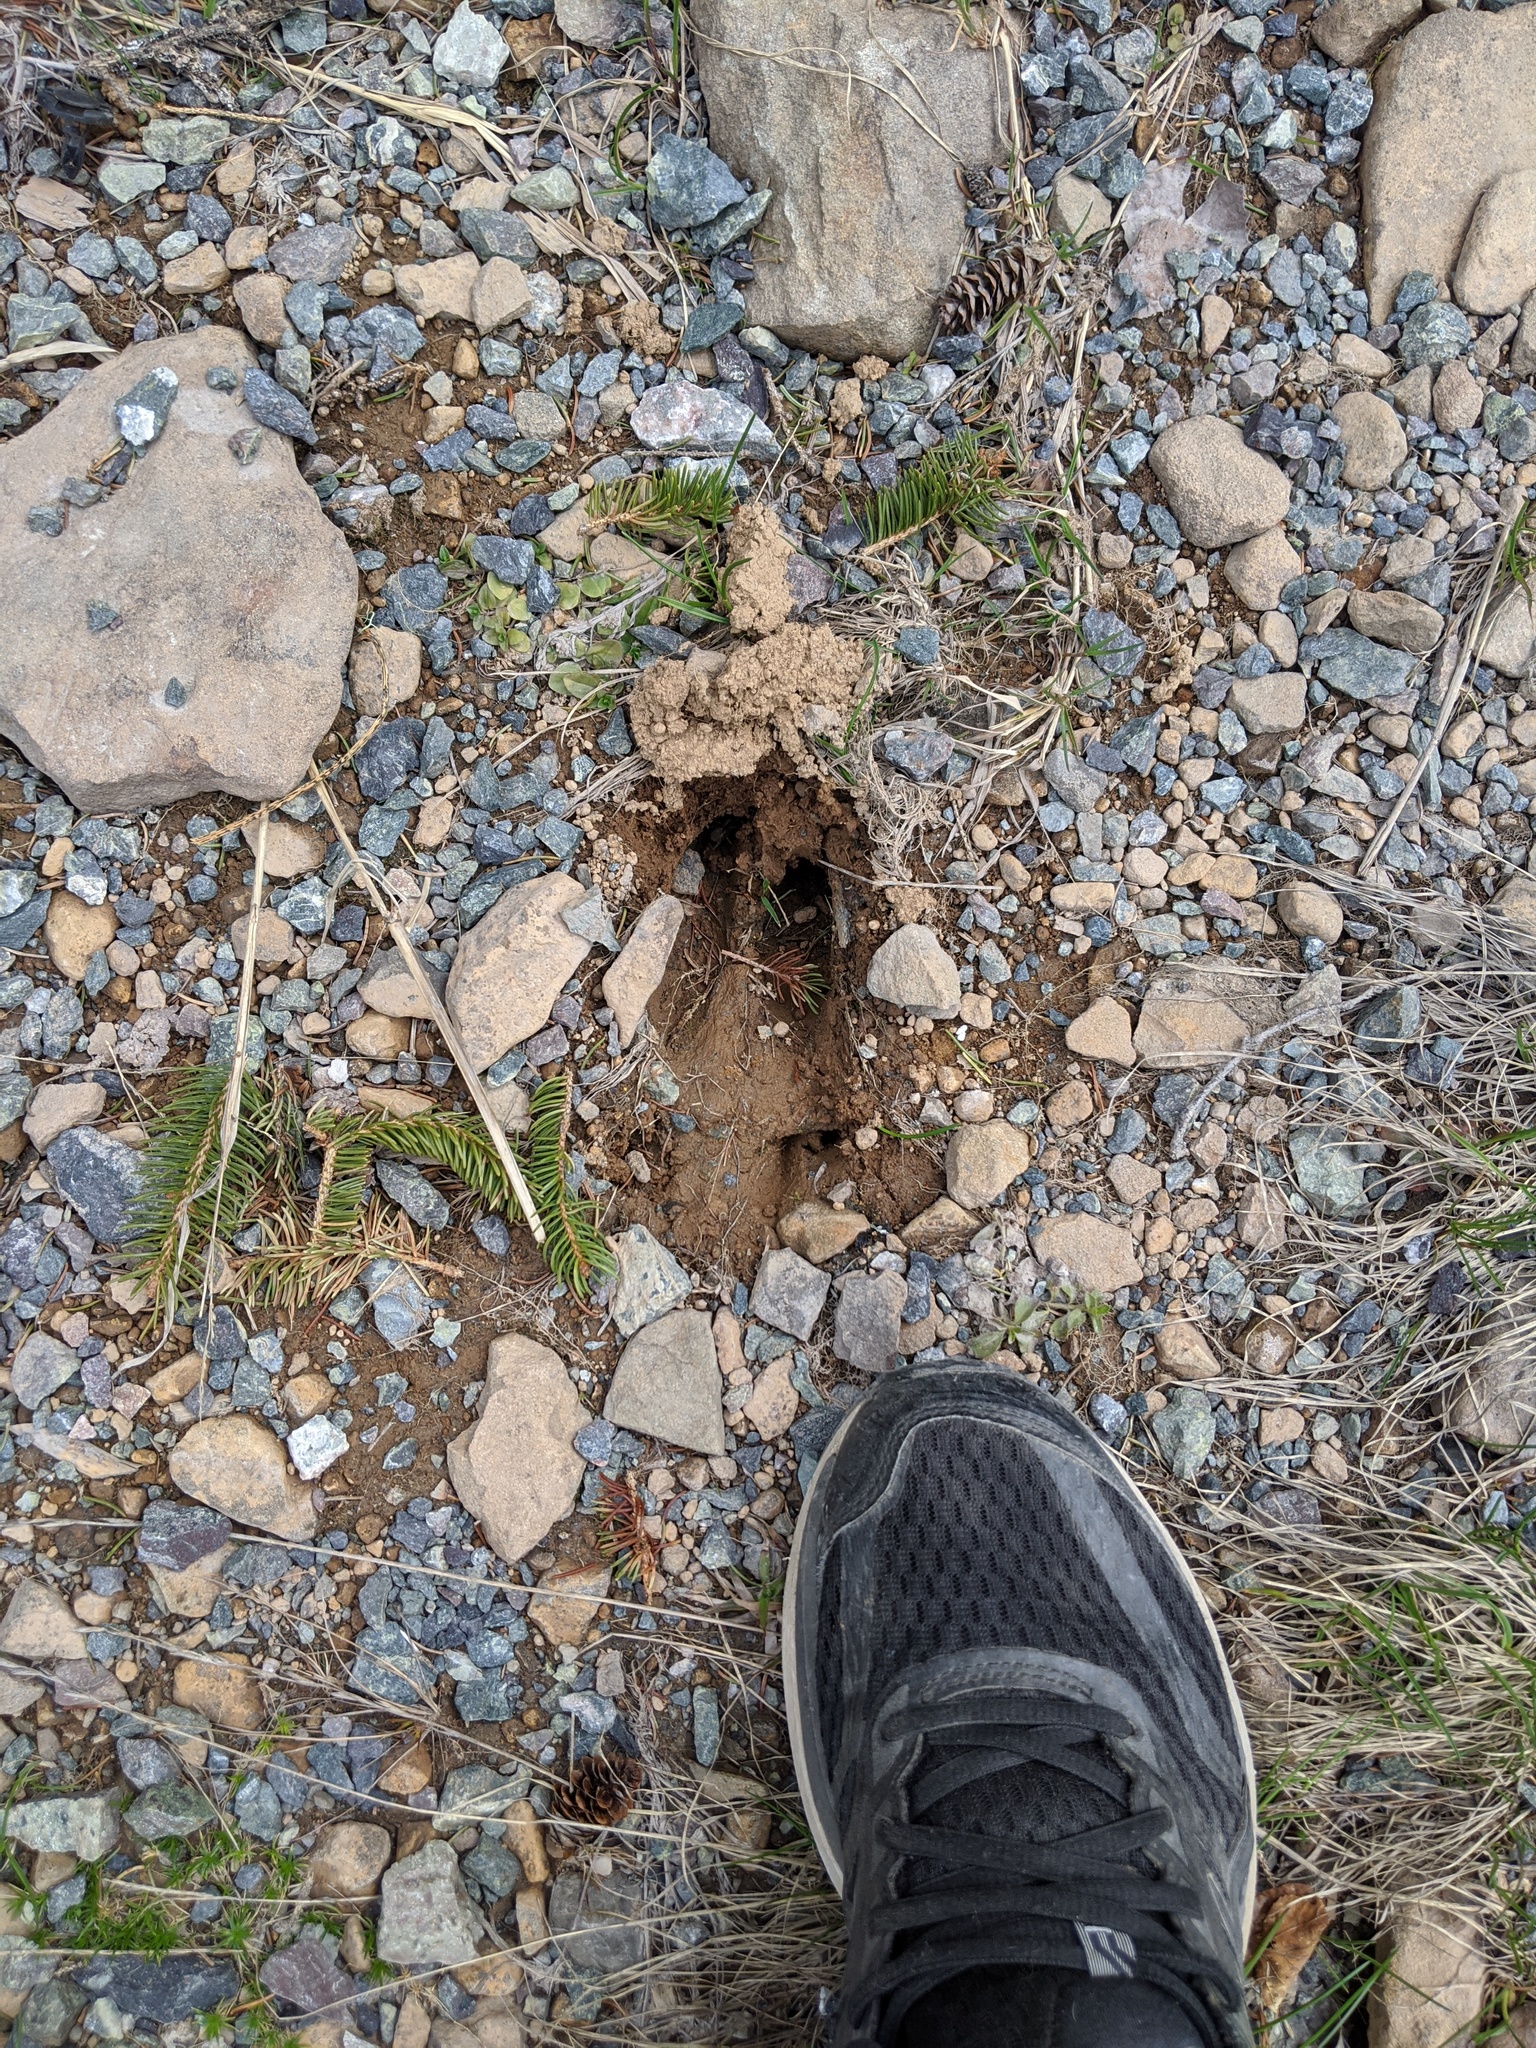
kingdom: Animalia
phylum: Chordata
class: Mammalia
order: Artiodactyla
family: Cervidae
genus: Odocoileus
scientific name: Odocoileus virginianus
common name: White-tailed deer
